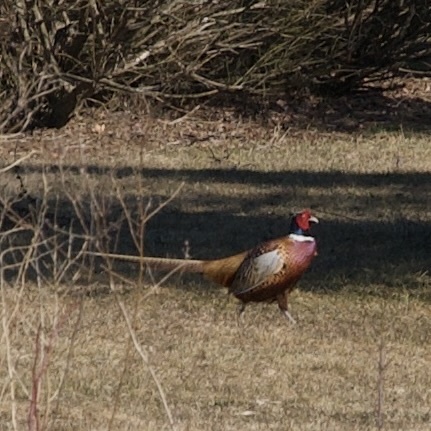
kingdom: Animalia
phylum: Chordata
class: Aves
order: Galliformes
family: Phasianidae
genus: Phasianus
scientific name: Phasianus colchicus
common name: Common pheasant
